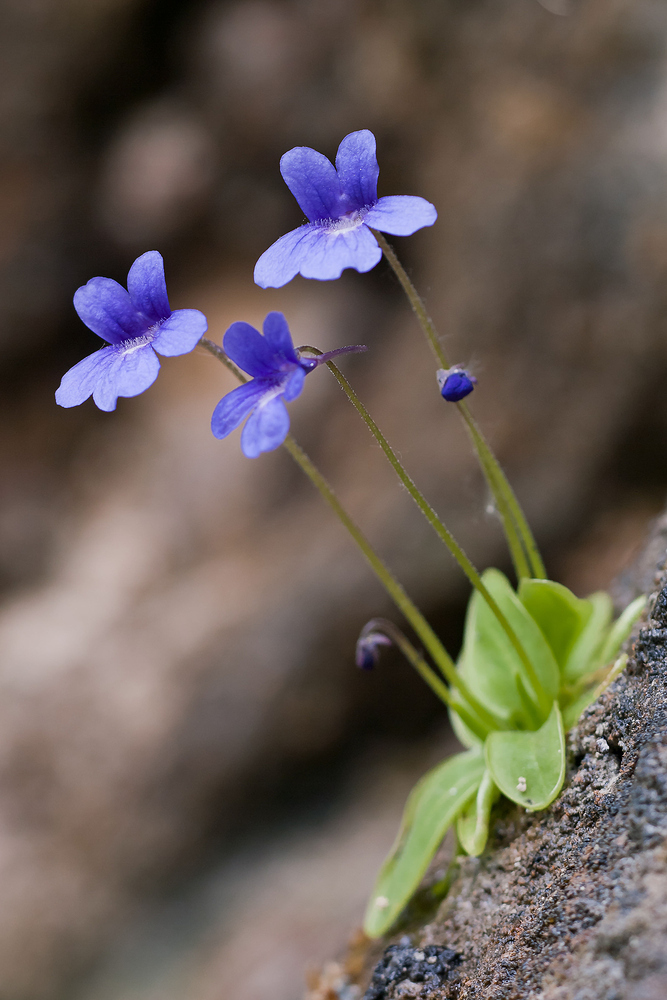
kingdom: Plantae
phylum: Tracheophyta
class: Magnoliopsida
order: Lamiales
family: Lentibulariaceae
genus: Pinguicula
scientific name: Pinguicula caussensis
